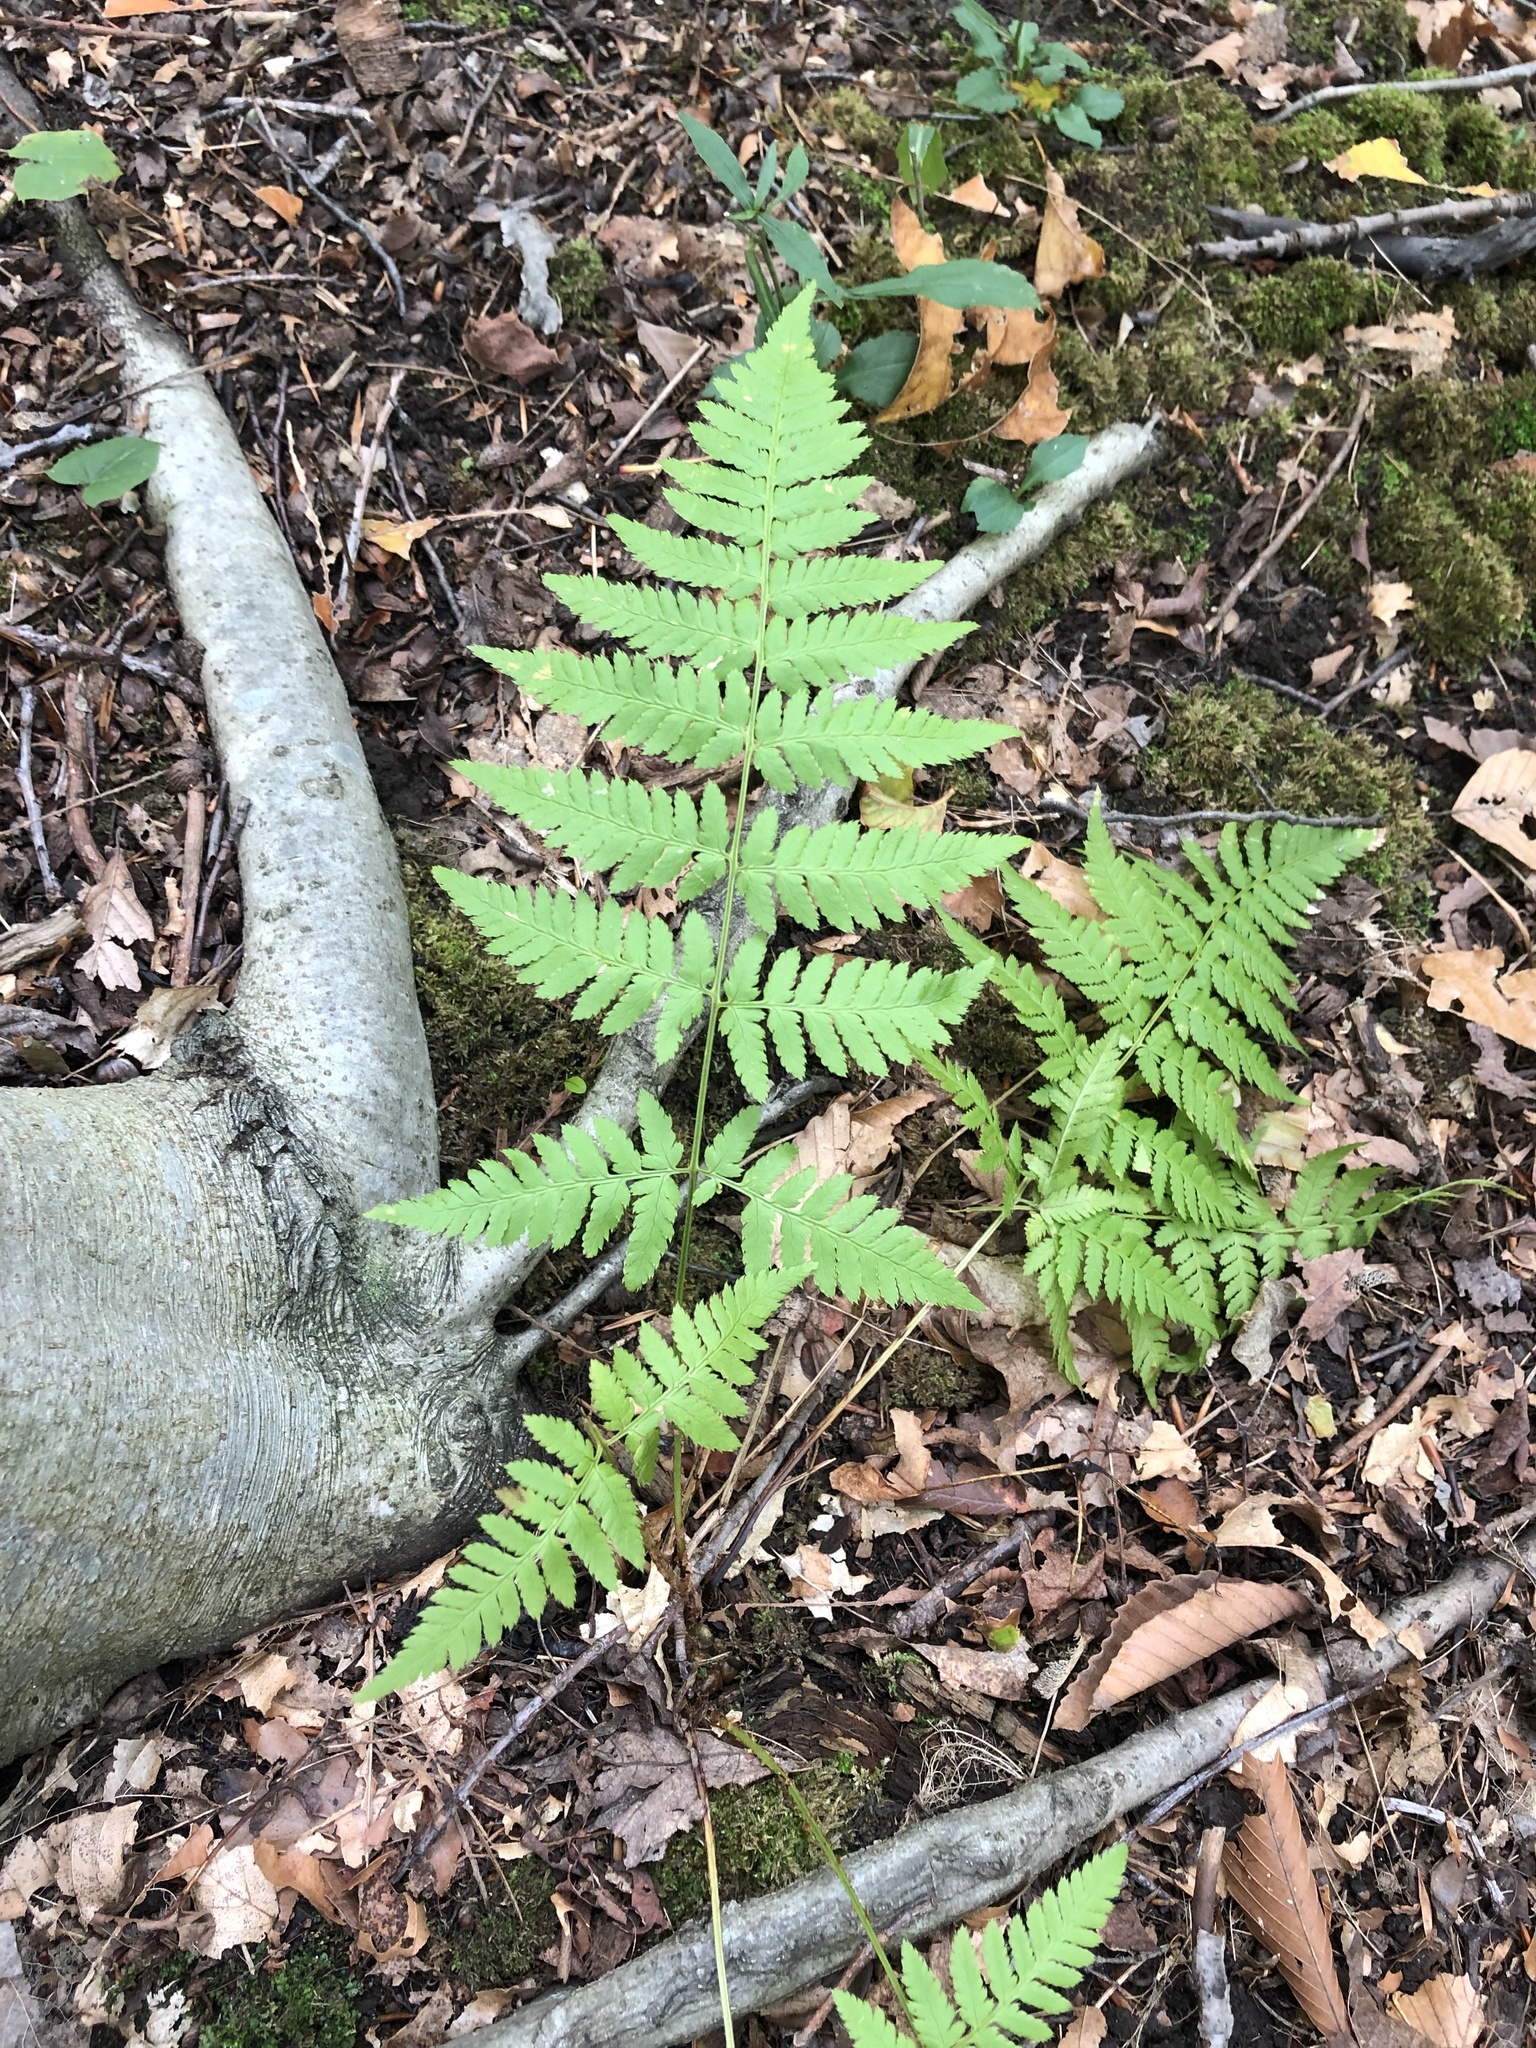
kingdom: Plantae
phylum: Tracheophyta
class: Polypodiopsida
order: Polypodiales
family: Dryopteridaceae
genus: Dryopteris
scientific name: Dryopteris carthusiana
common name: Narrow buckler-fern
